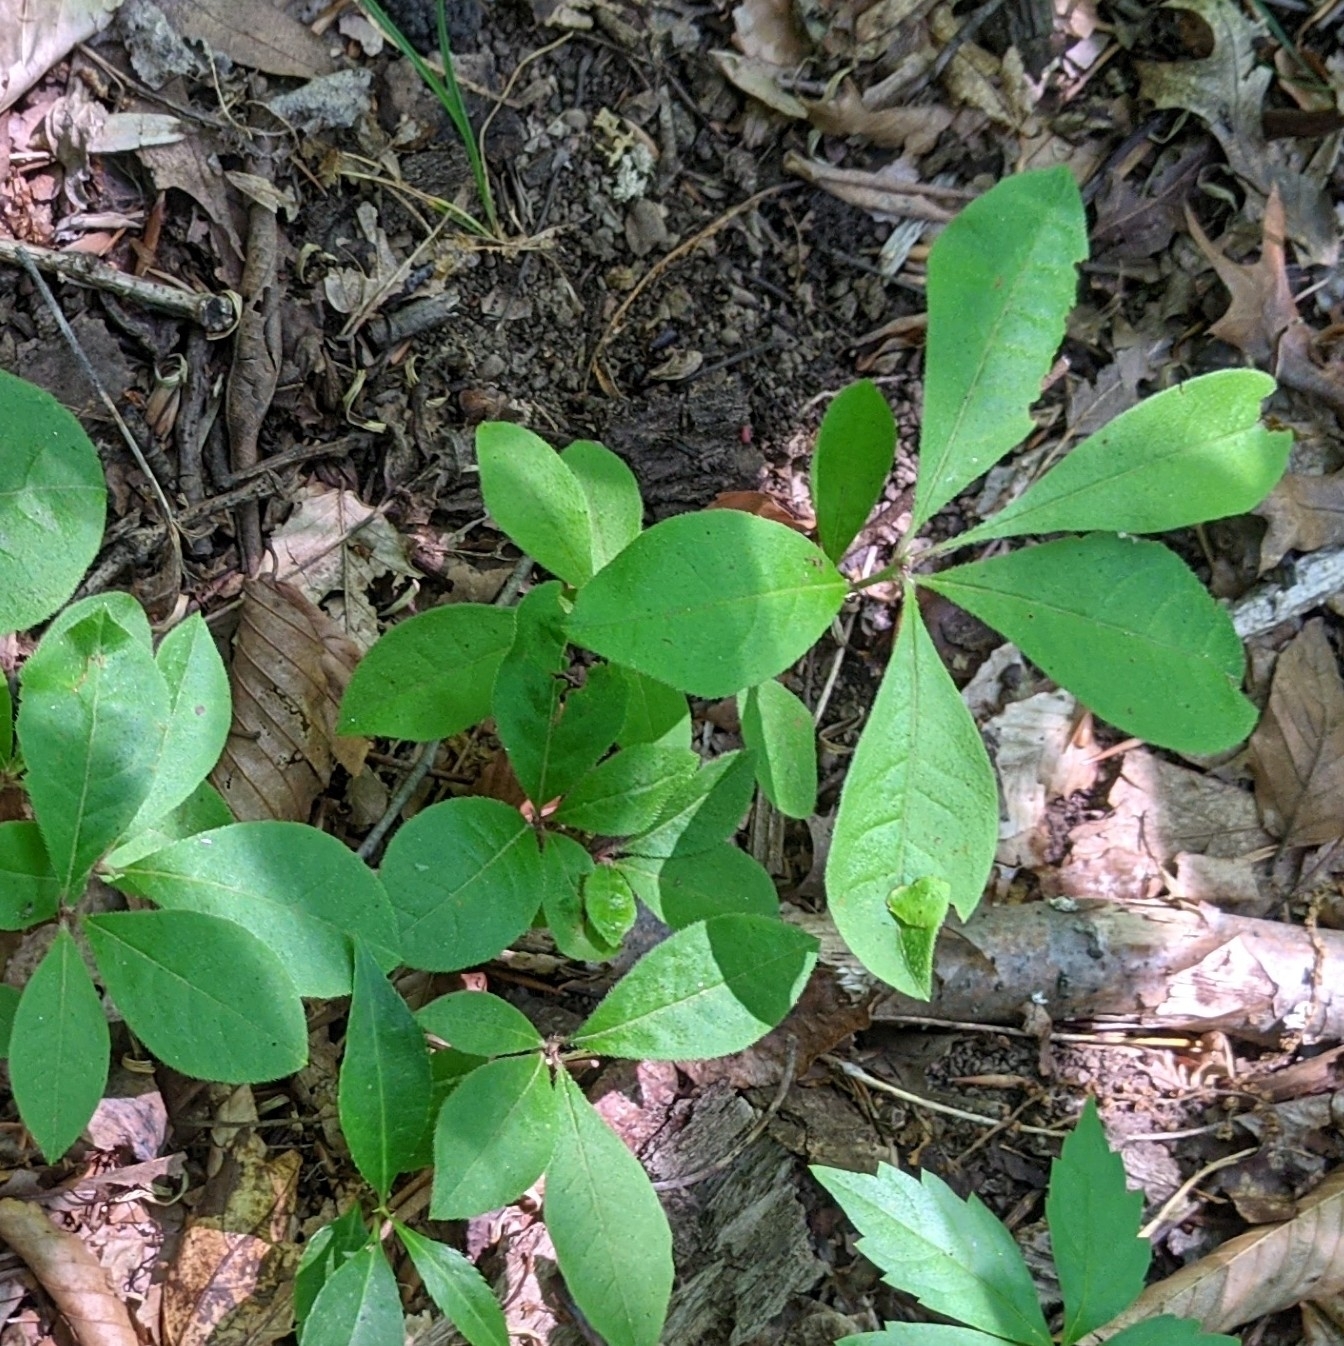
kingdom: Plantae
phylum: Tracheophyta
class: Magnoliopsida
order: Cornales
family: Nyssaceae
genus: Nyssa
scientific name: Nyssa sylvatica
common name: Black tupelo
